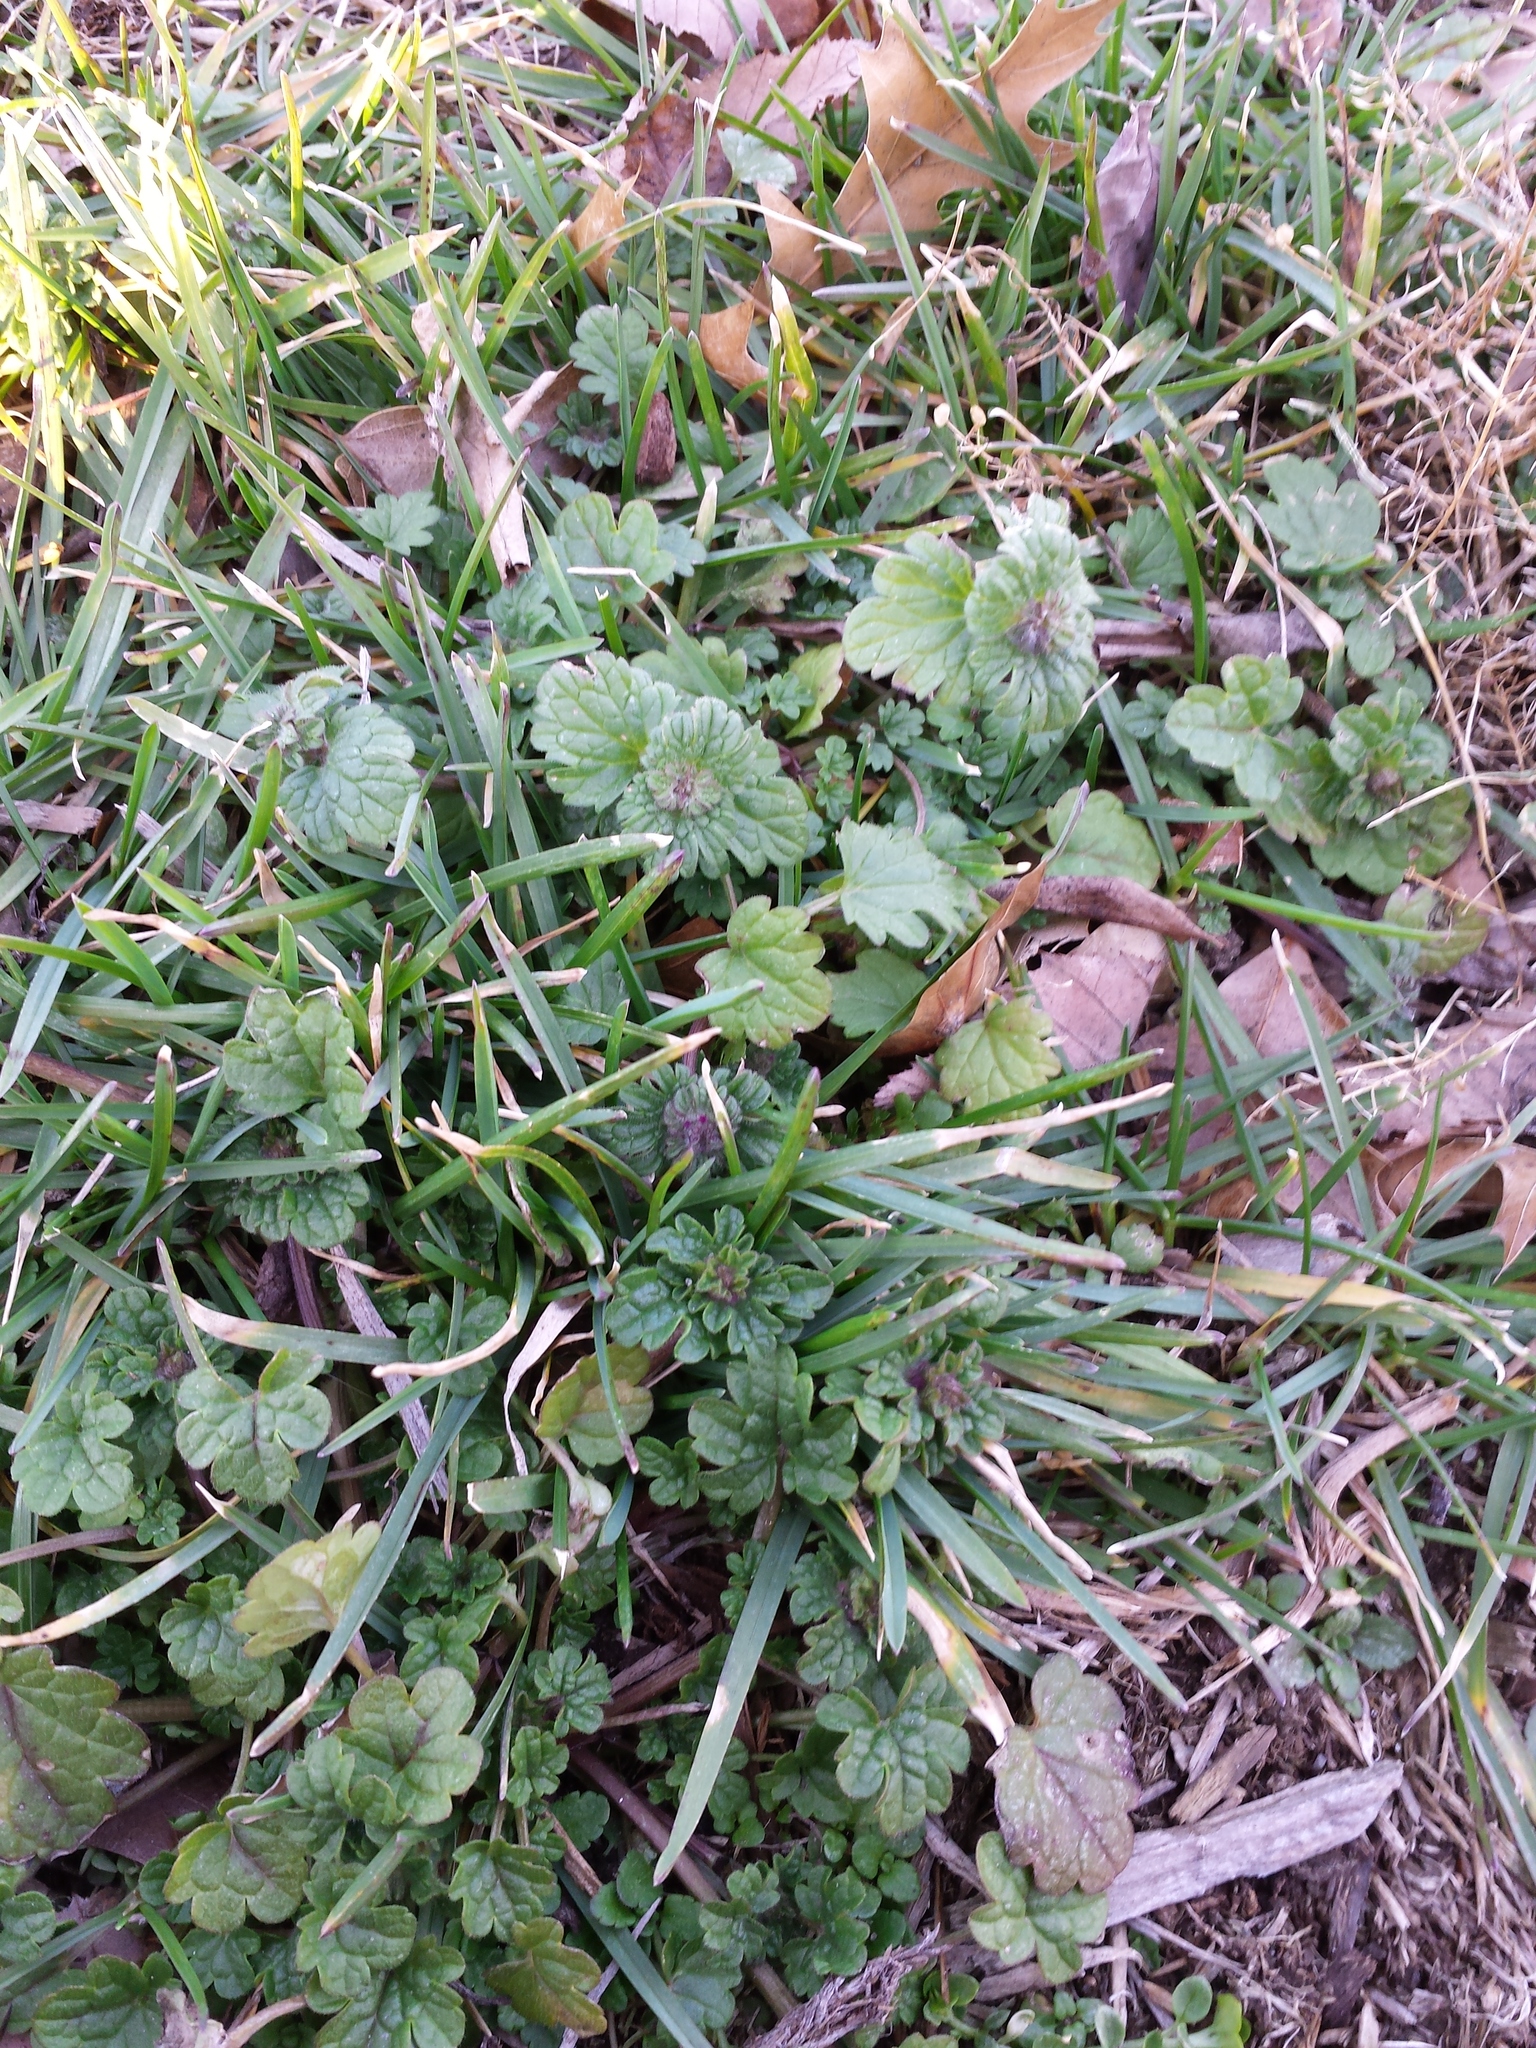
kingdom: Plantae
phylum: Tracheophyta
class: Magnoliopsida
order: Lamiales
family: Lamiaceae
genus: Lamium
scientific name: Lamium amplexicaule
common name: Henbit dead-nettle
